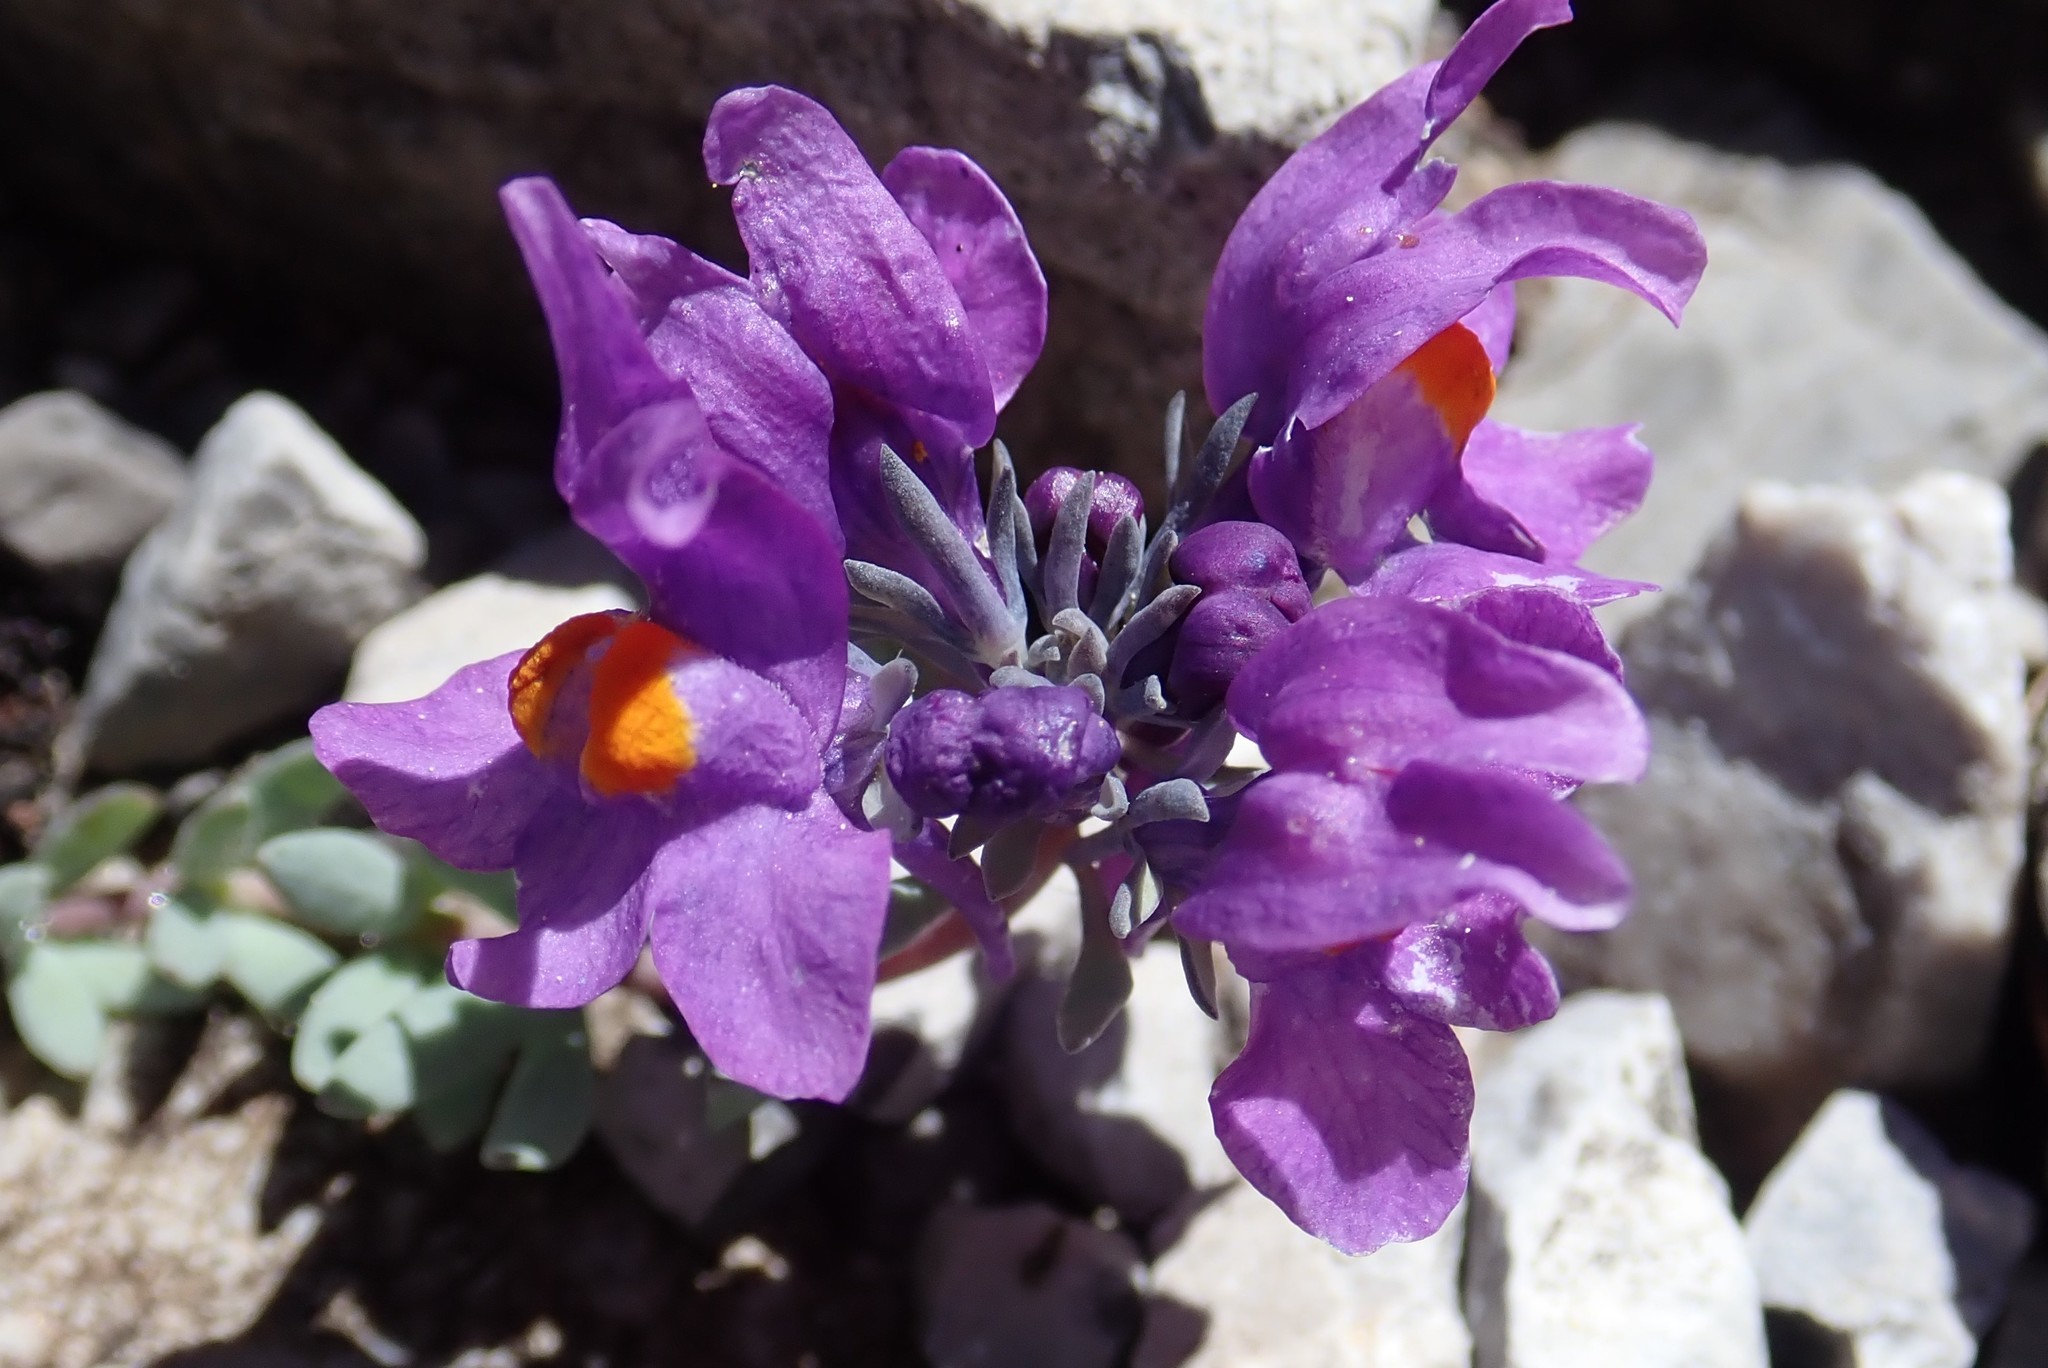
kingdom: Plantae
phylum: Tracheophyta
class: Magnoliopsida
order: Lamiales
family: Plantaginaceae
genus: Linaria
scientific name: Linaria alpina
